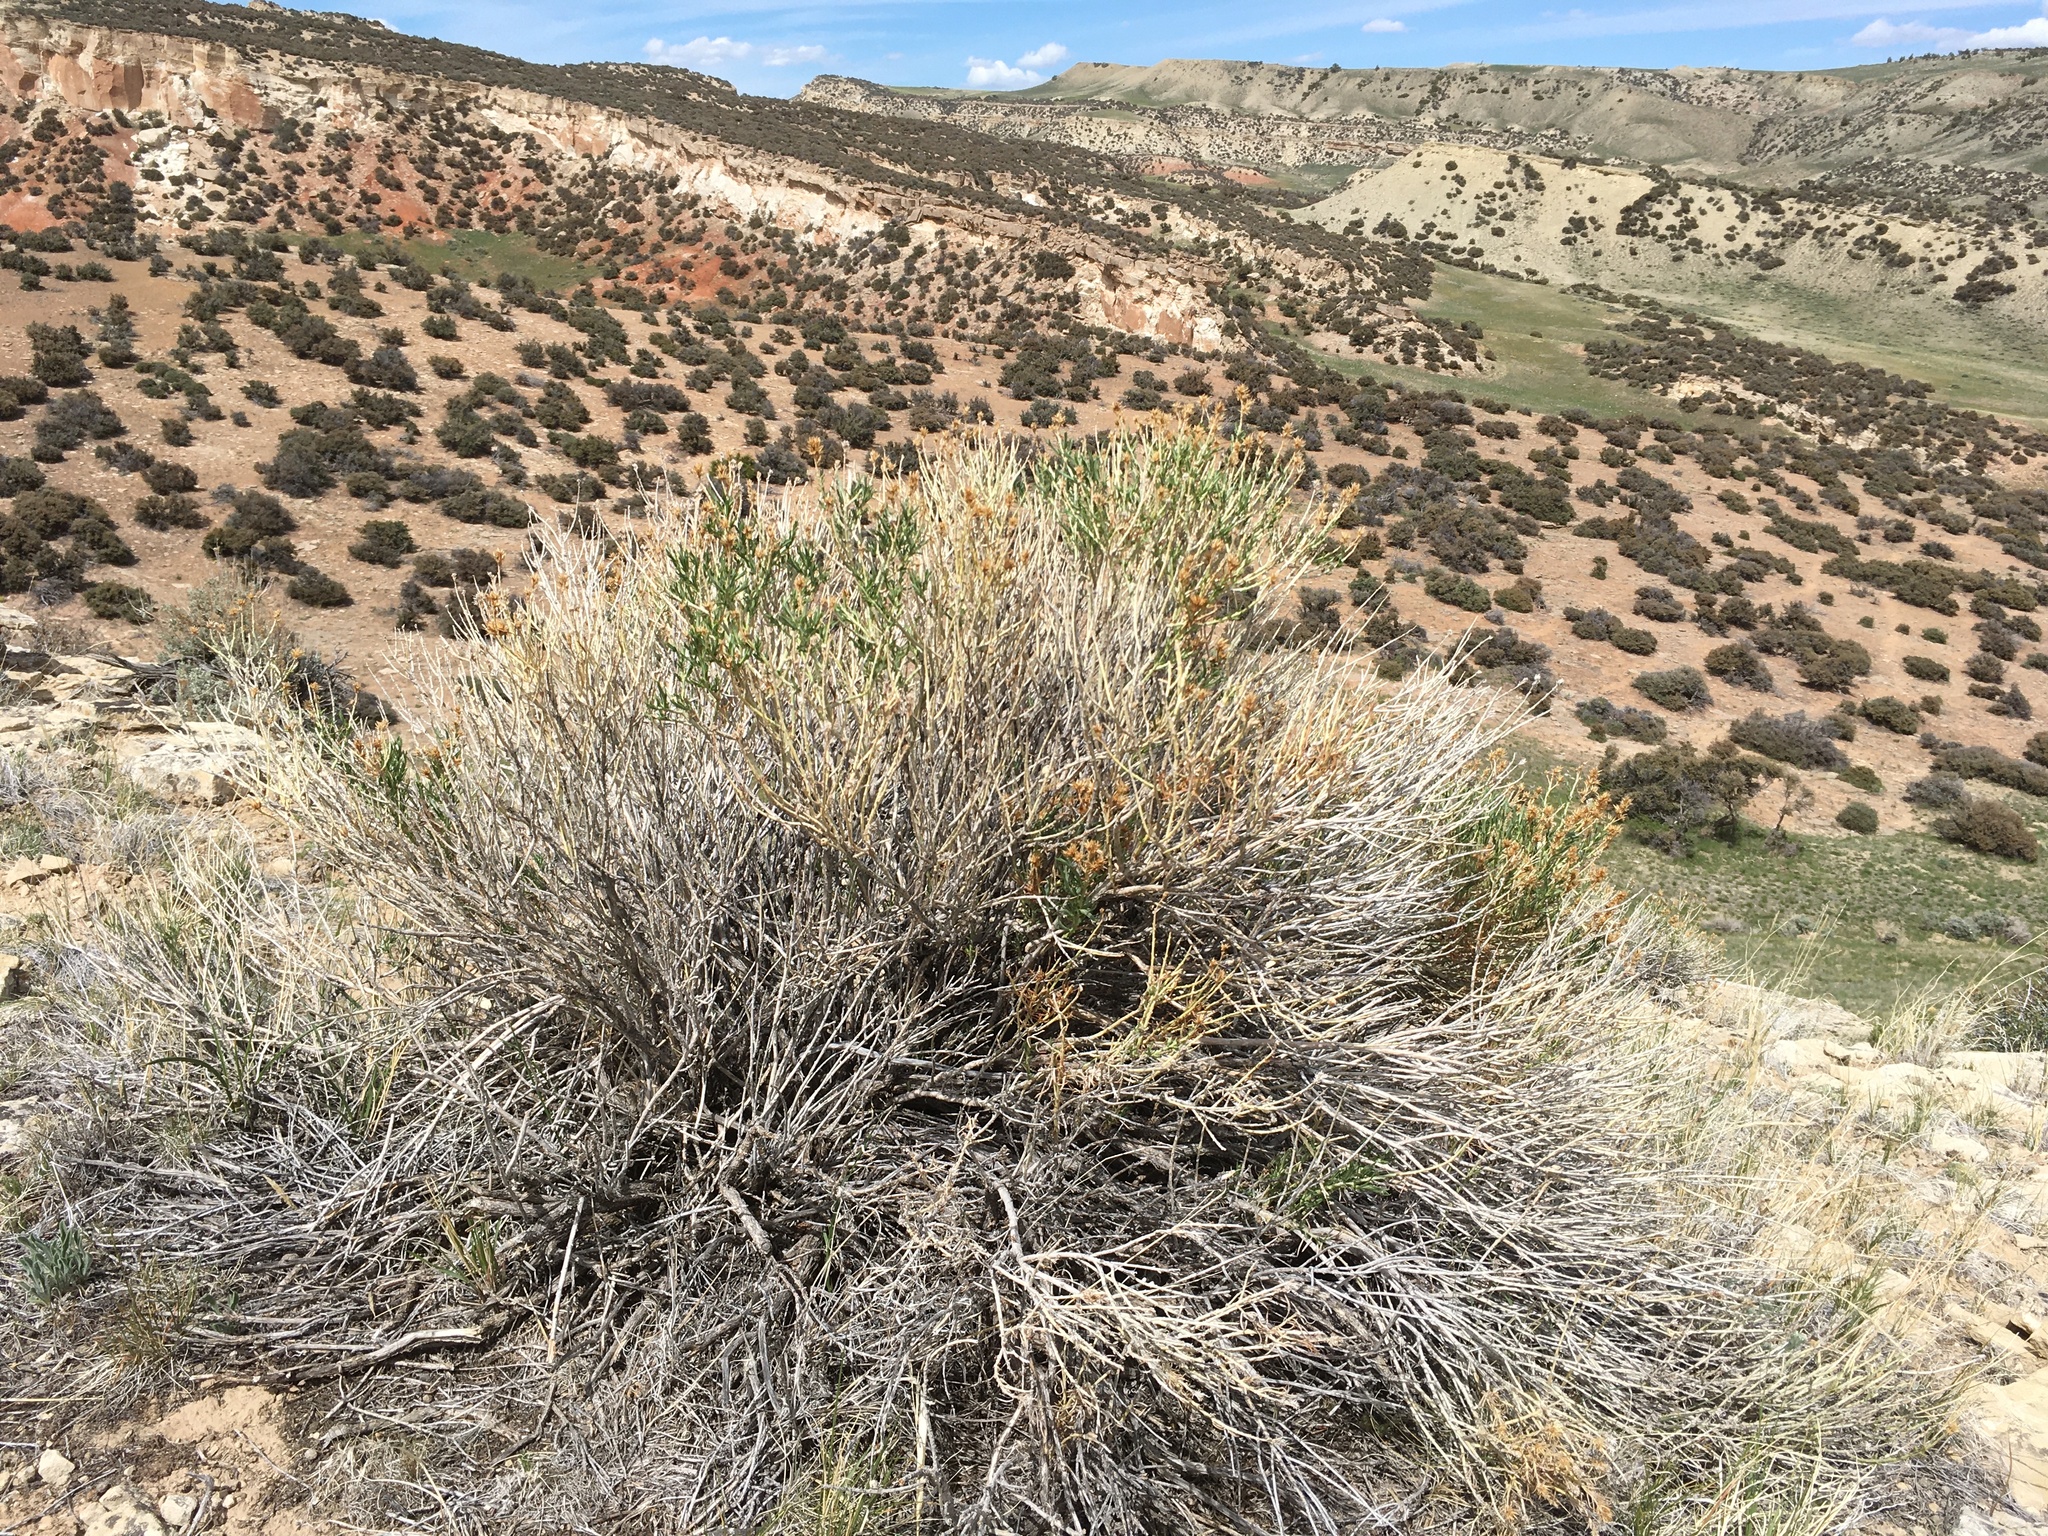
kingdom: Plantae
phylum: Tracheophyta
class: Magnoliopsida
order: Asterales
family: Asteraceae
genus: Ericameria
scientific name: Ericameria nauseosa
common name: Rubber rabbitbrush
